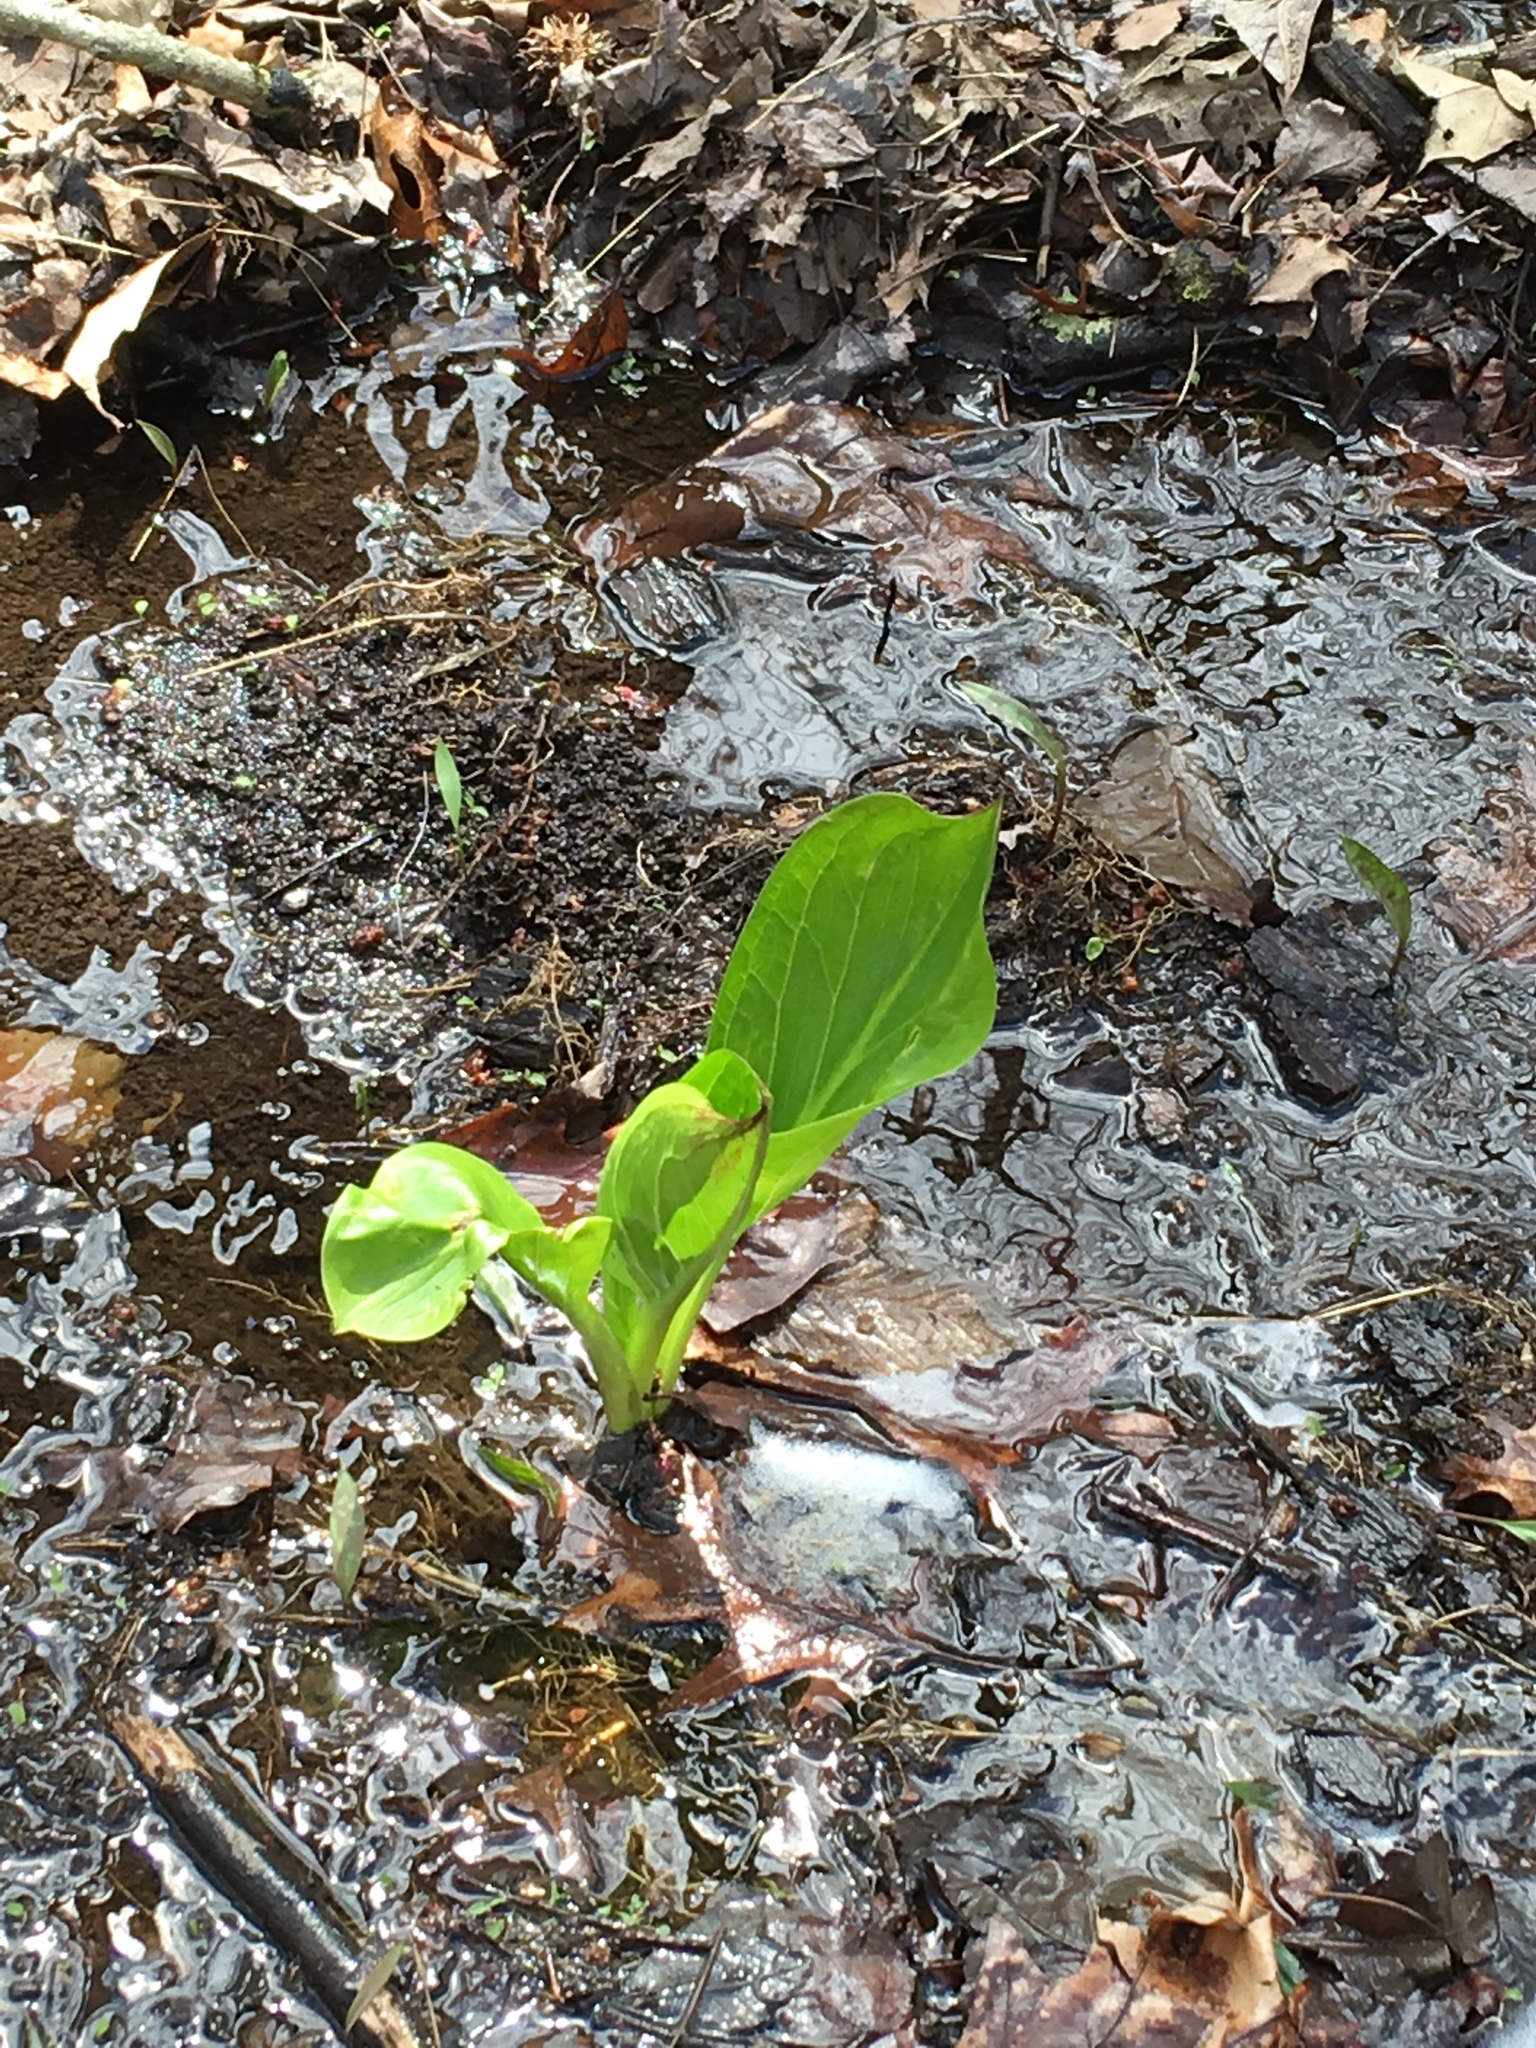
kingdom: Plantae
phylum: Tracheophyta
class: Liliopsida
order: Alismatales
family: Araceae
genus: Symplocarpus
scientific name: Symplocarpus foetidus
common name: Eastern skunk cabbage
